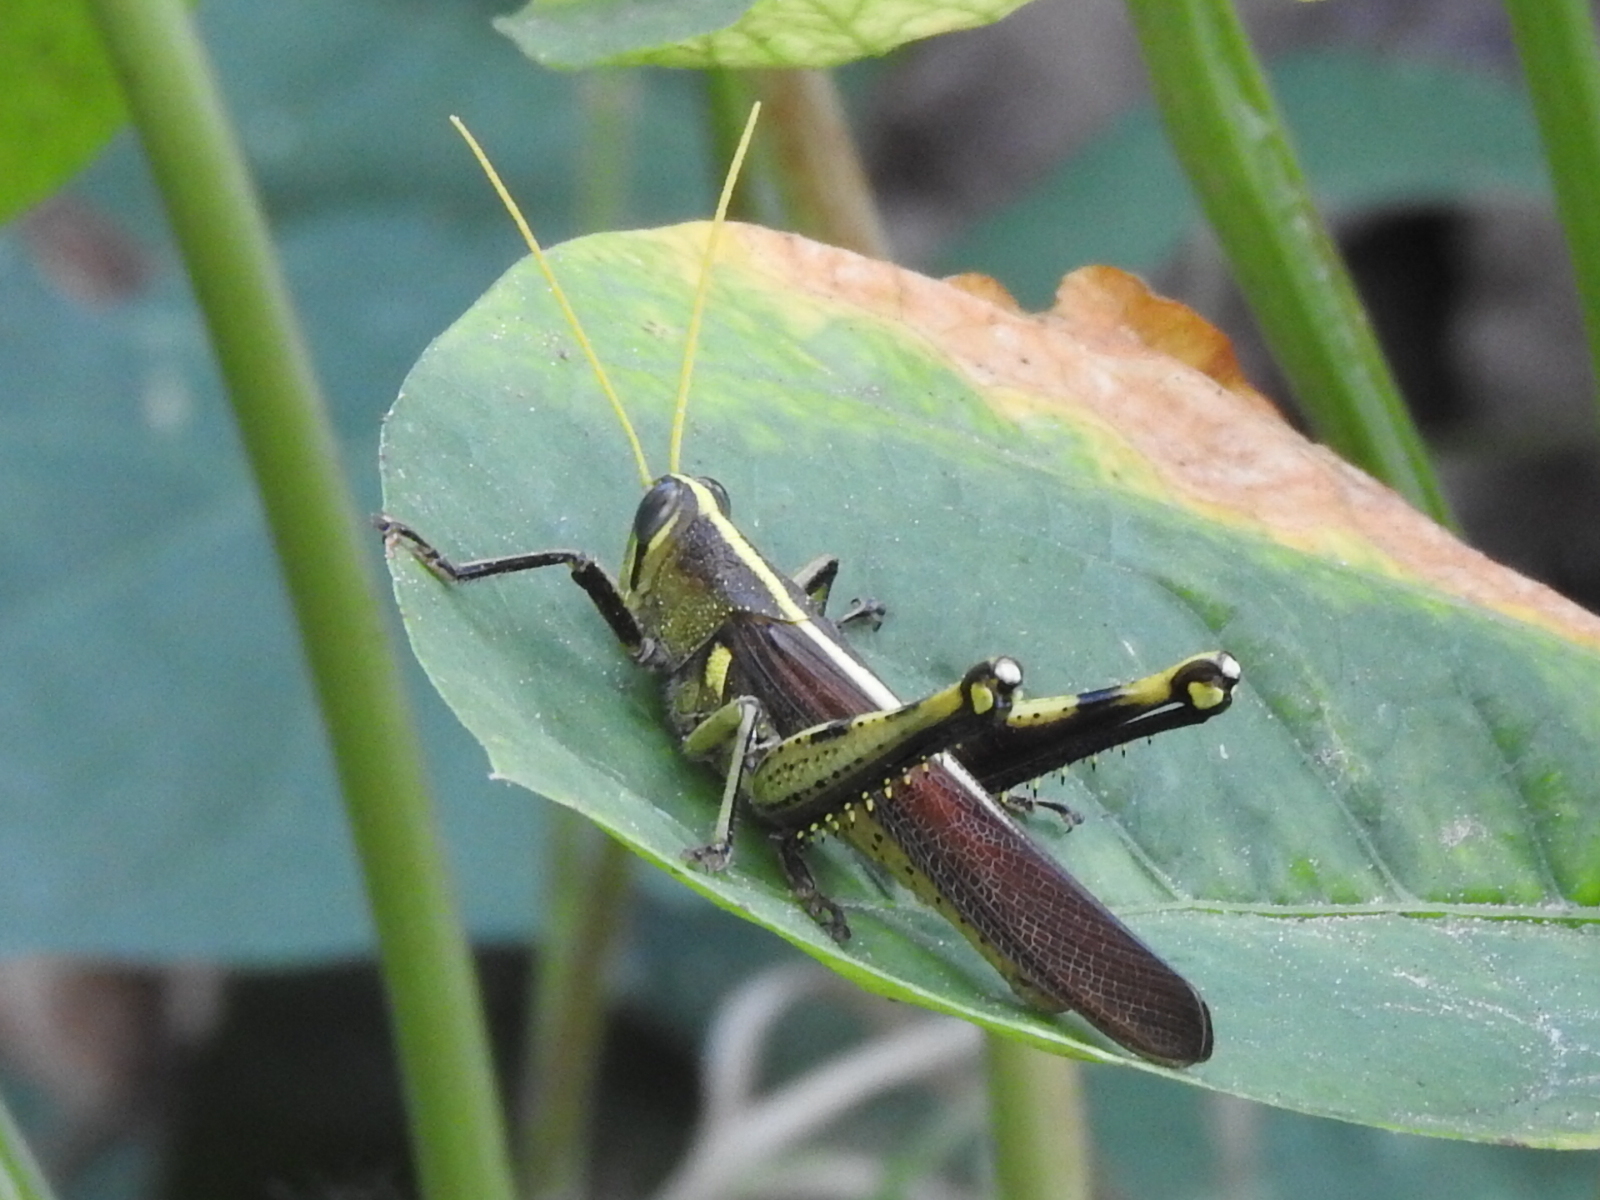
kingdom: Animalia
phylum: Arthropoda
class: Insecta
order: Orthoptera
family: Acrididae
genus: Schistocerca
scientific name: Schistocerca obscura
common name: Obscure bird grasshopper
